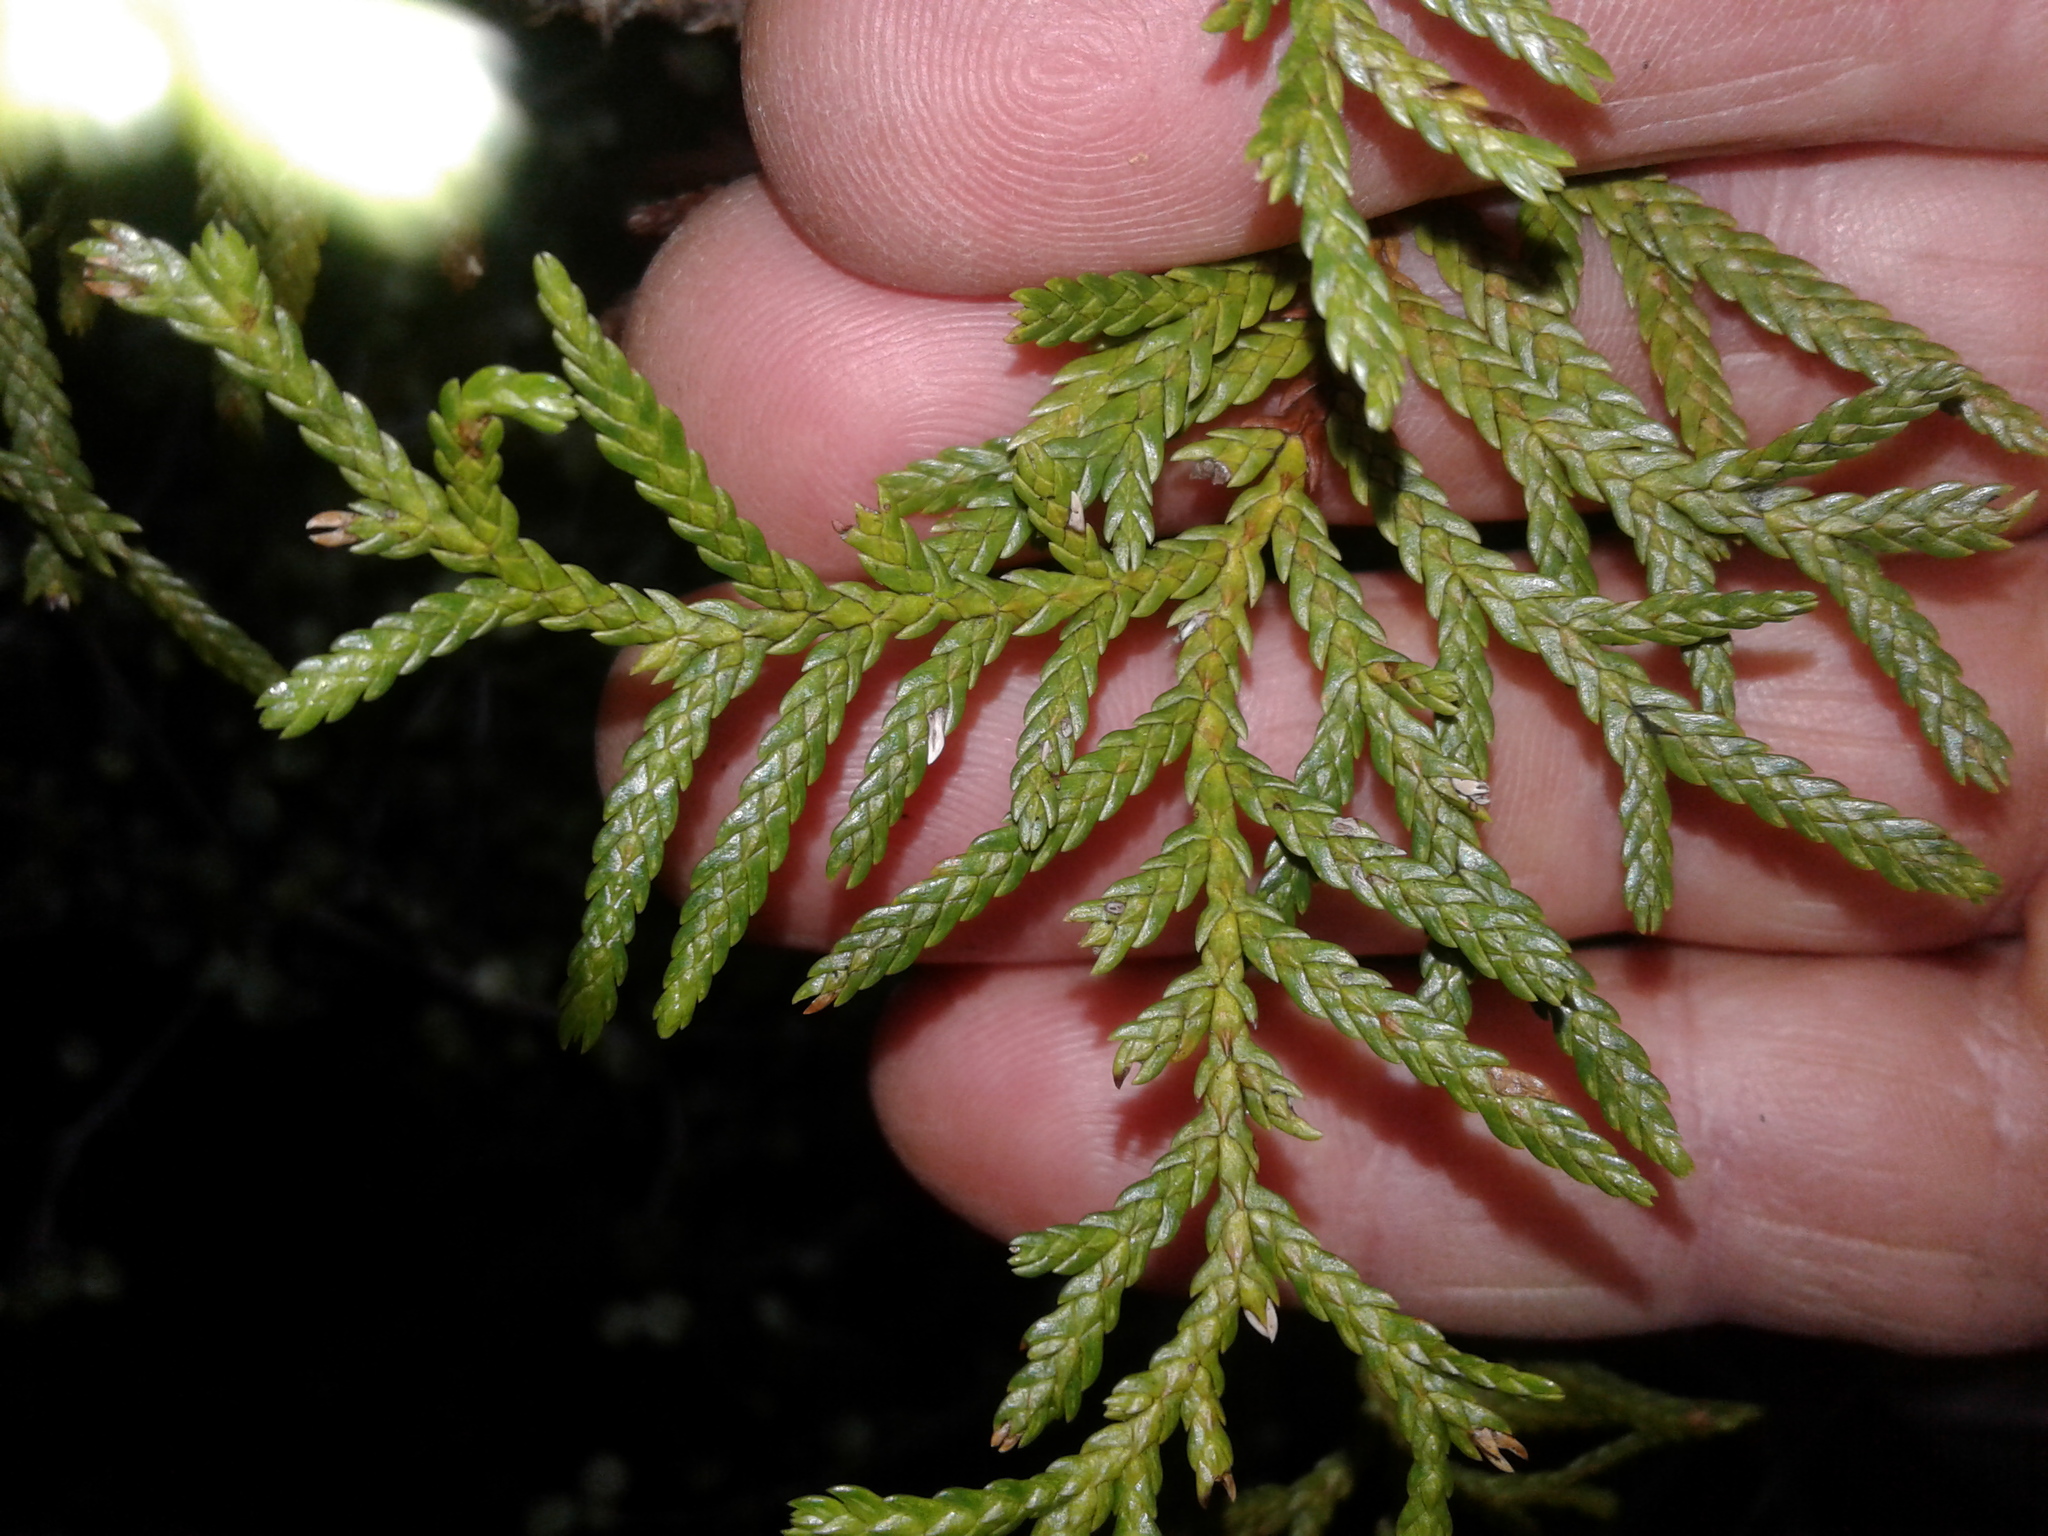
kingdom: Plantae
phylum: Tracheophyta
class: Pinopsida
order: Pinales
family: Cupressaceae
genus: Libocedrus
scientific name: Libocedrus bidwillii
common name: Cedar
